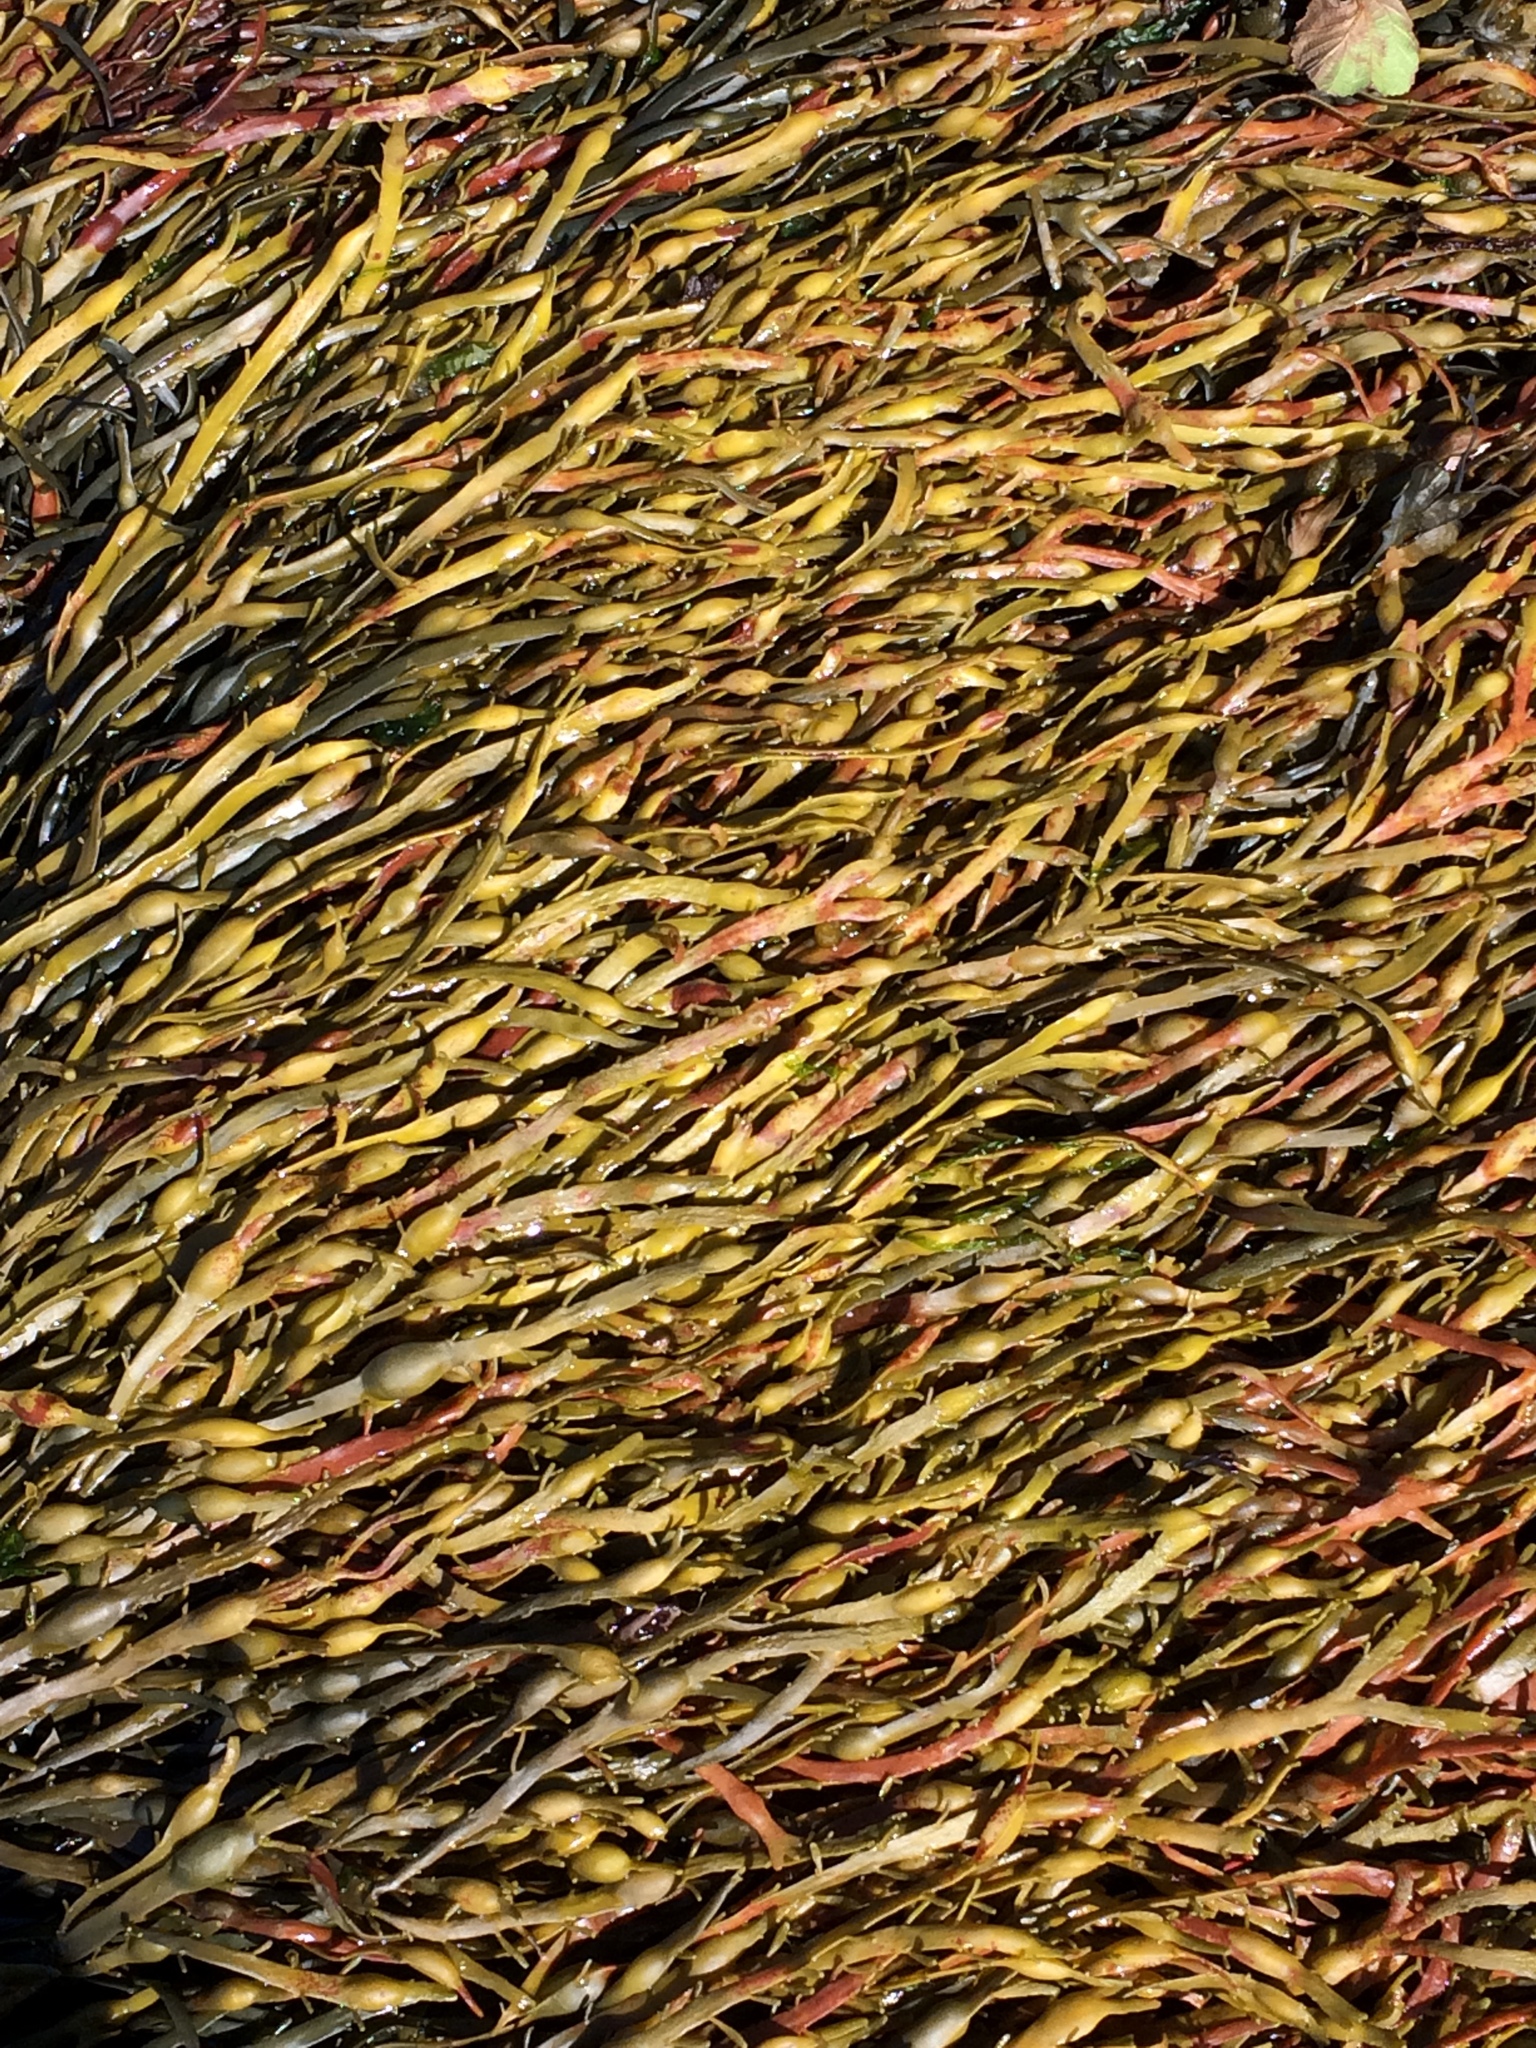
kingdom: Chromista
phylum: Ochrophyta
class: Phaeophyceae
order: Fucales
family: Fucaceae
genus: Ascophyllum
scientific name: Ascophyllum nodosum
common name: Knotted wrack
